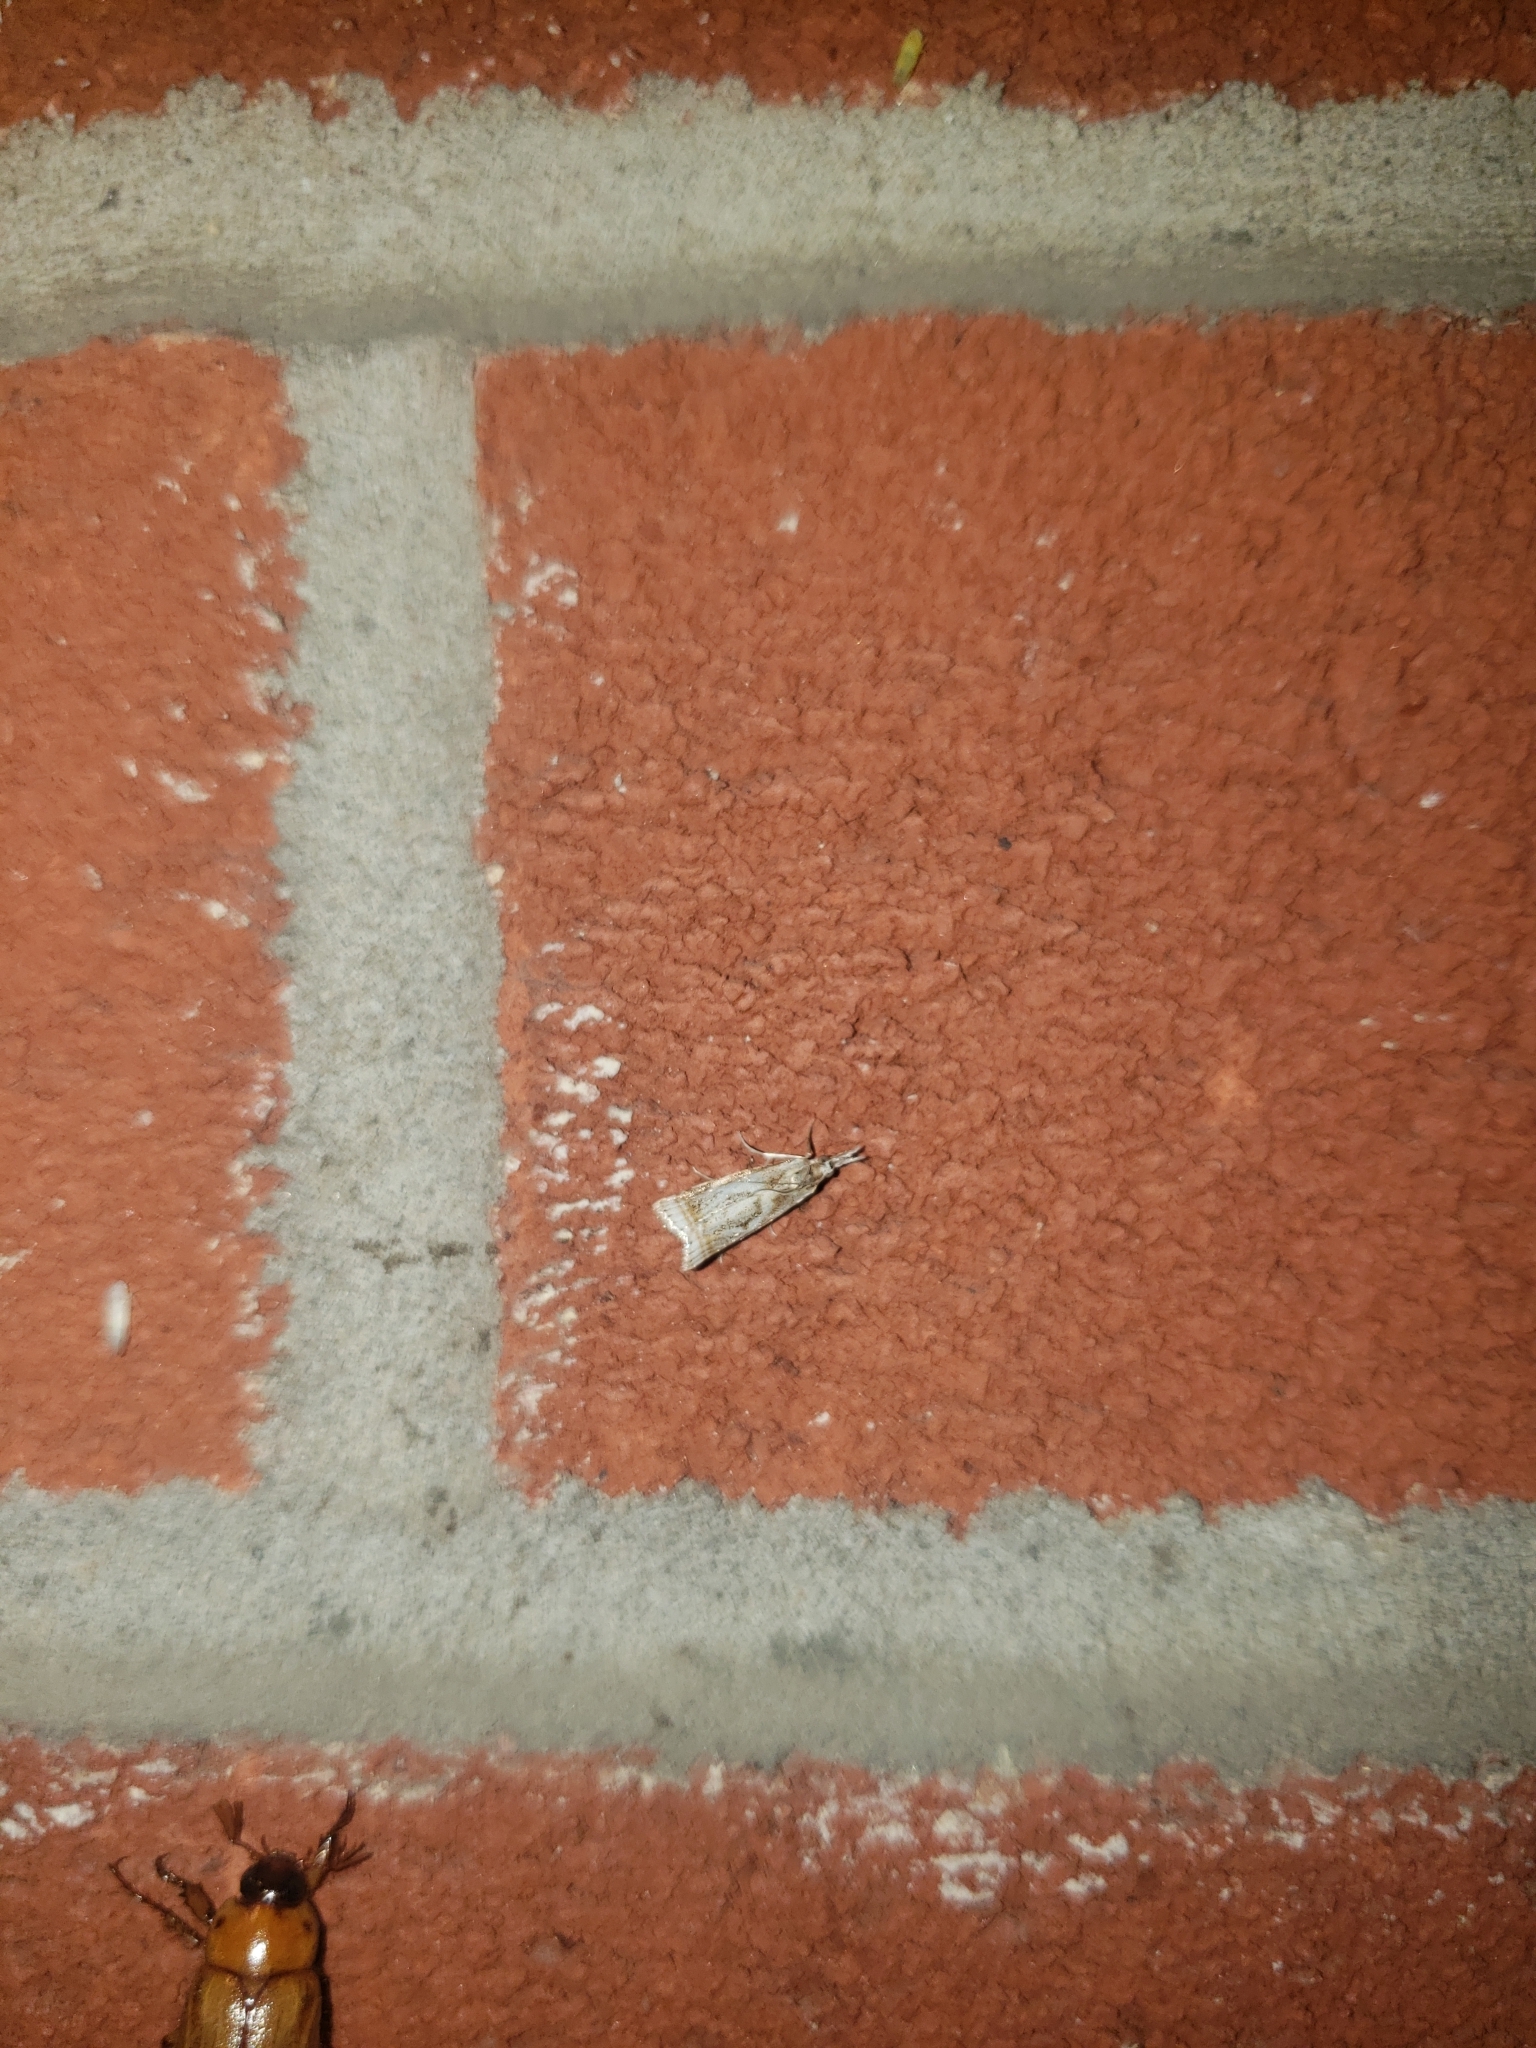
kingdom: Animalia
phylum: Arthropoda
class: Insecta
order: Lepidoptera
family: Crambidae
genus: Microcrambus
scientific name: Microcrambus elegans
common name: Elegant grass-veneer
